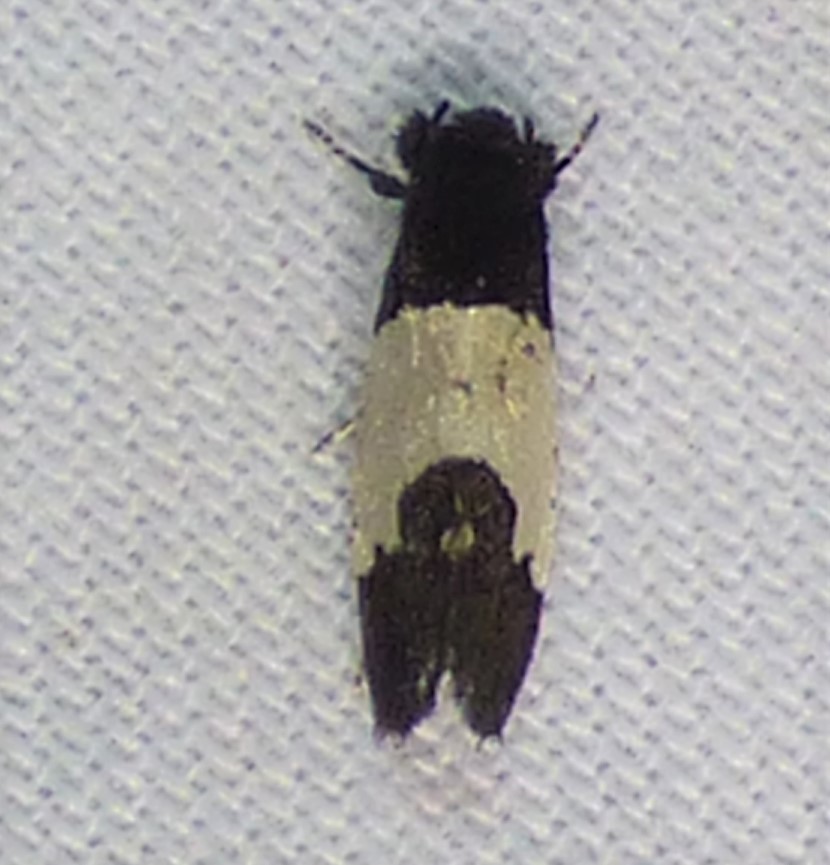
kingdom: Animalia
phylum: Arthropoda
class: Insecta
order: Lepidoptera
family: Psychidae
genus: Kearfottia
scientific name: Kearfottia albifasciella
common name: White-patched kearfottia
